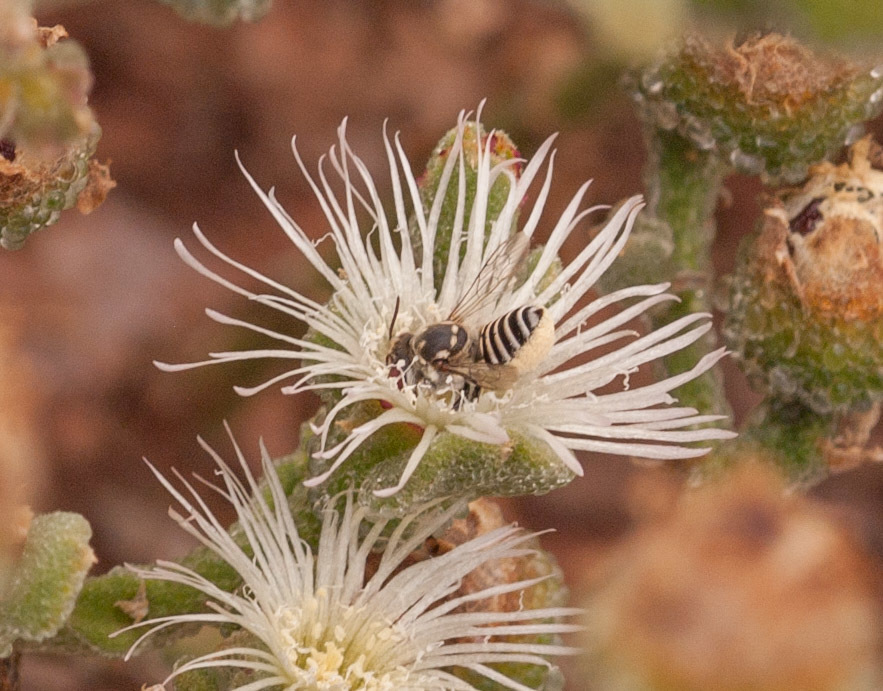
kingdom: Animalia
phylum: Arthropoda
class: Insecta
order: Hymenoptera
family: Megachilidae
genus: Megachile
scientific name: Megachile darwiniana
